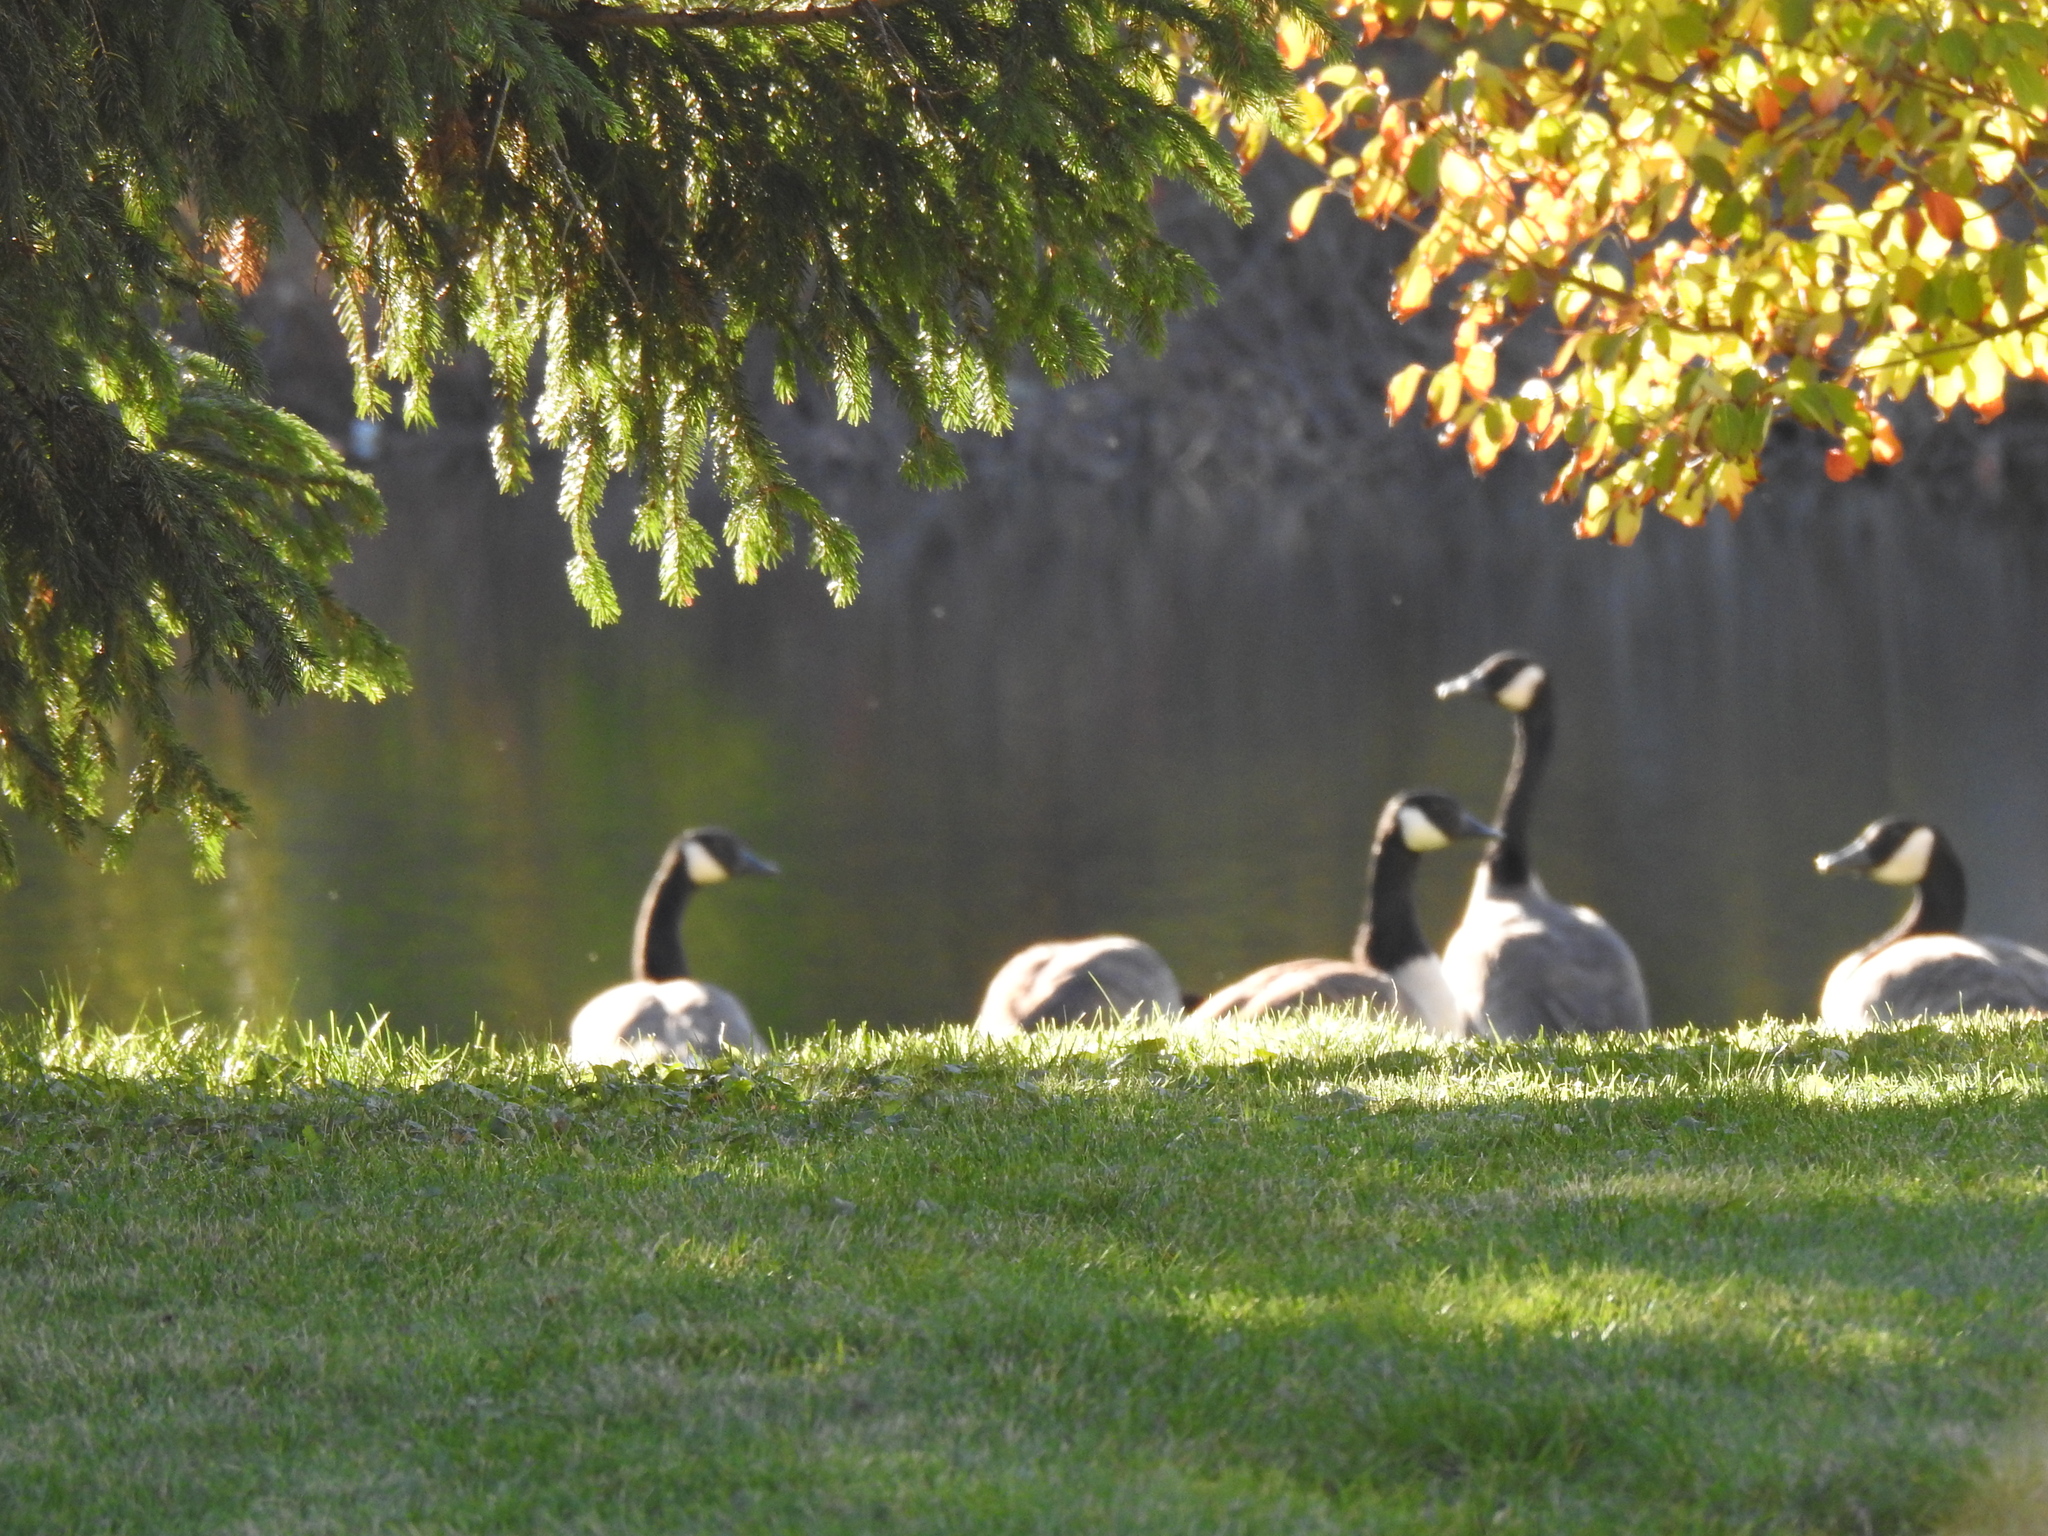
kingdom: Animalia
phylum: Chordata
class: Aves
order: Anseriformes
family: Anatidae
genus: Branta
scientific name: Branta canadensis
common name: Canada goose
